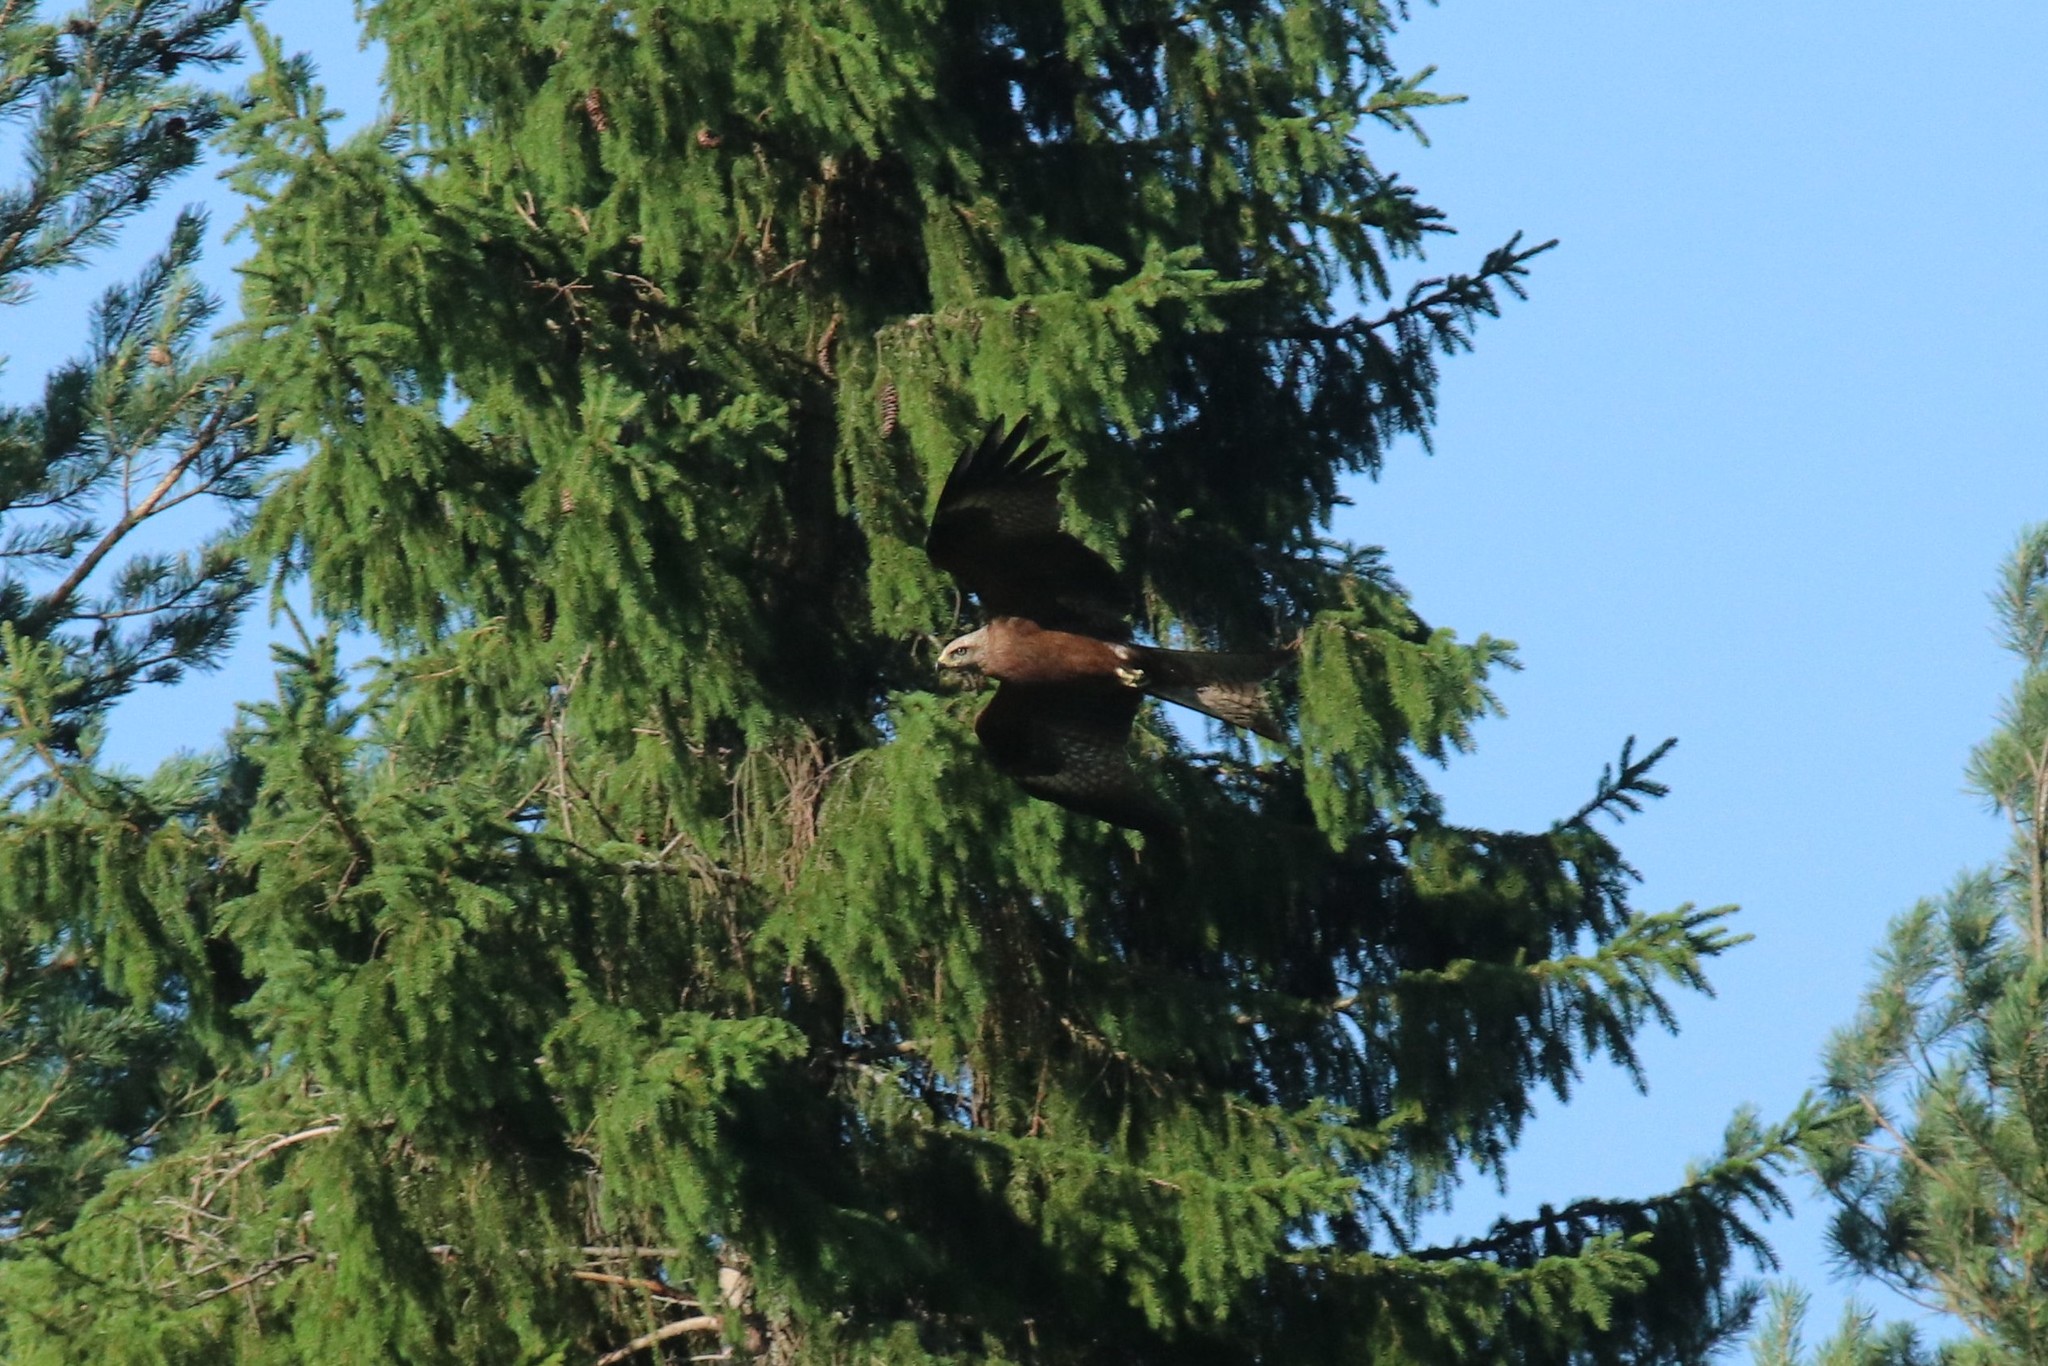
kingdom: Animalia
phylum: Chordata
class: Aves
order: Accipitriformes
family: Accipitridae
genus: Milvus
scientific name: Milvus migrans
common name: Black kite
